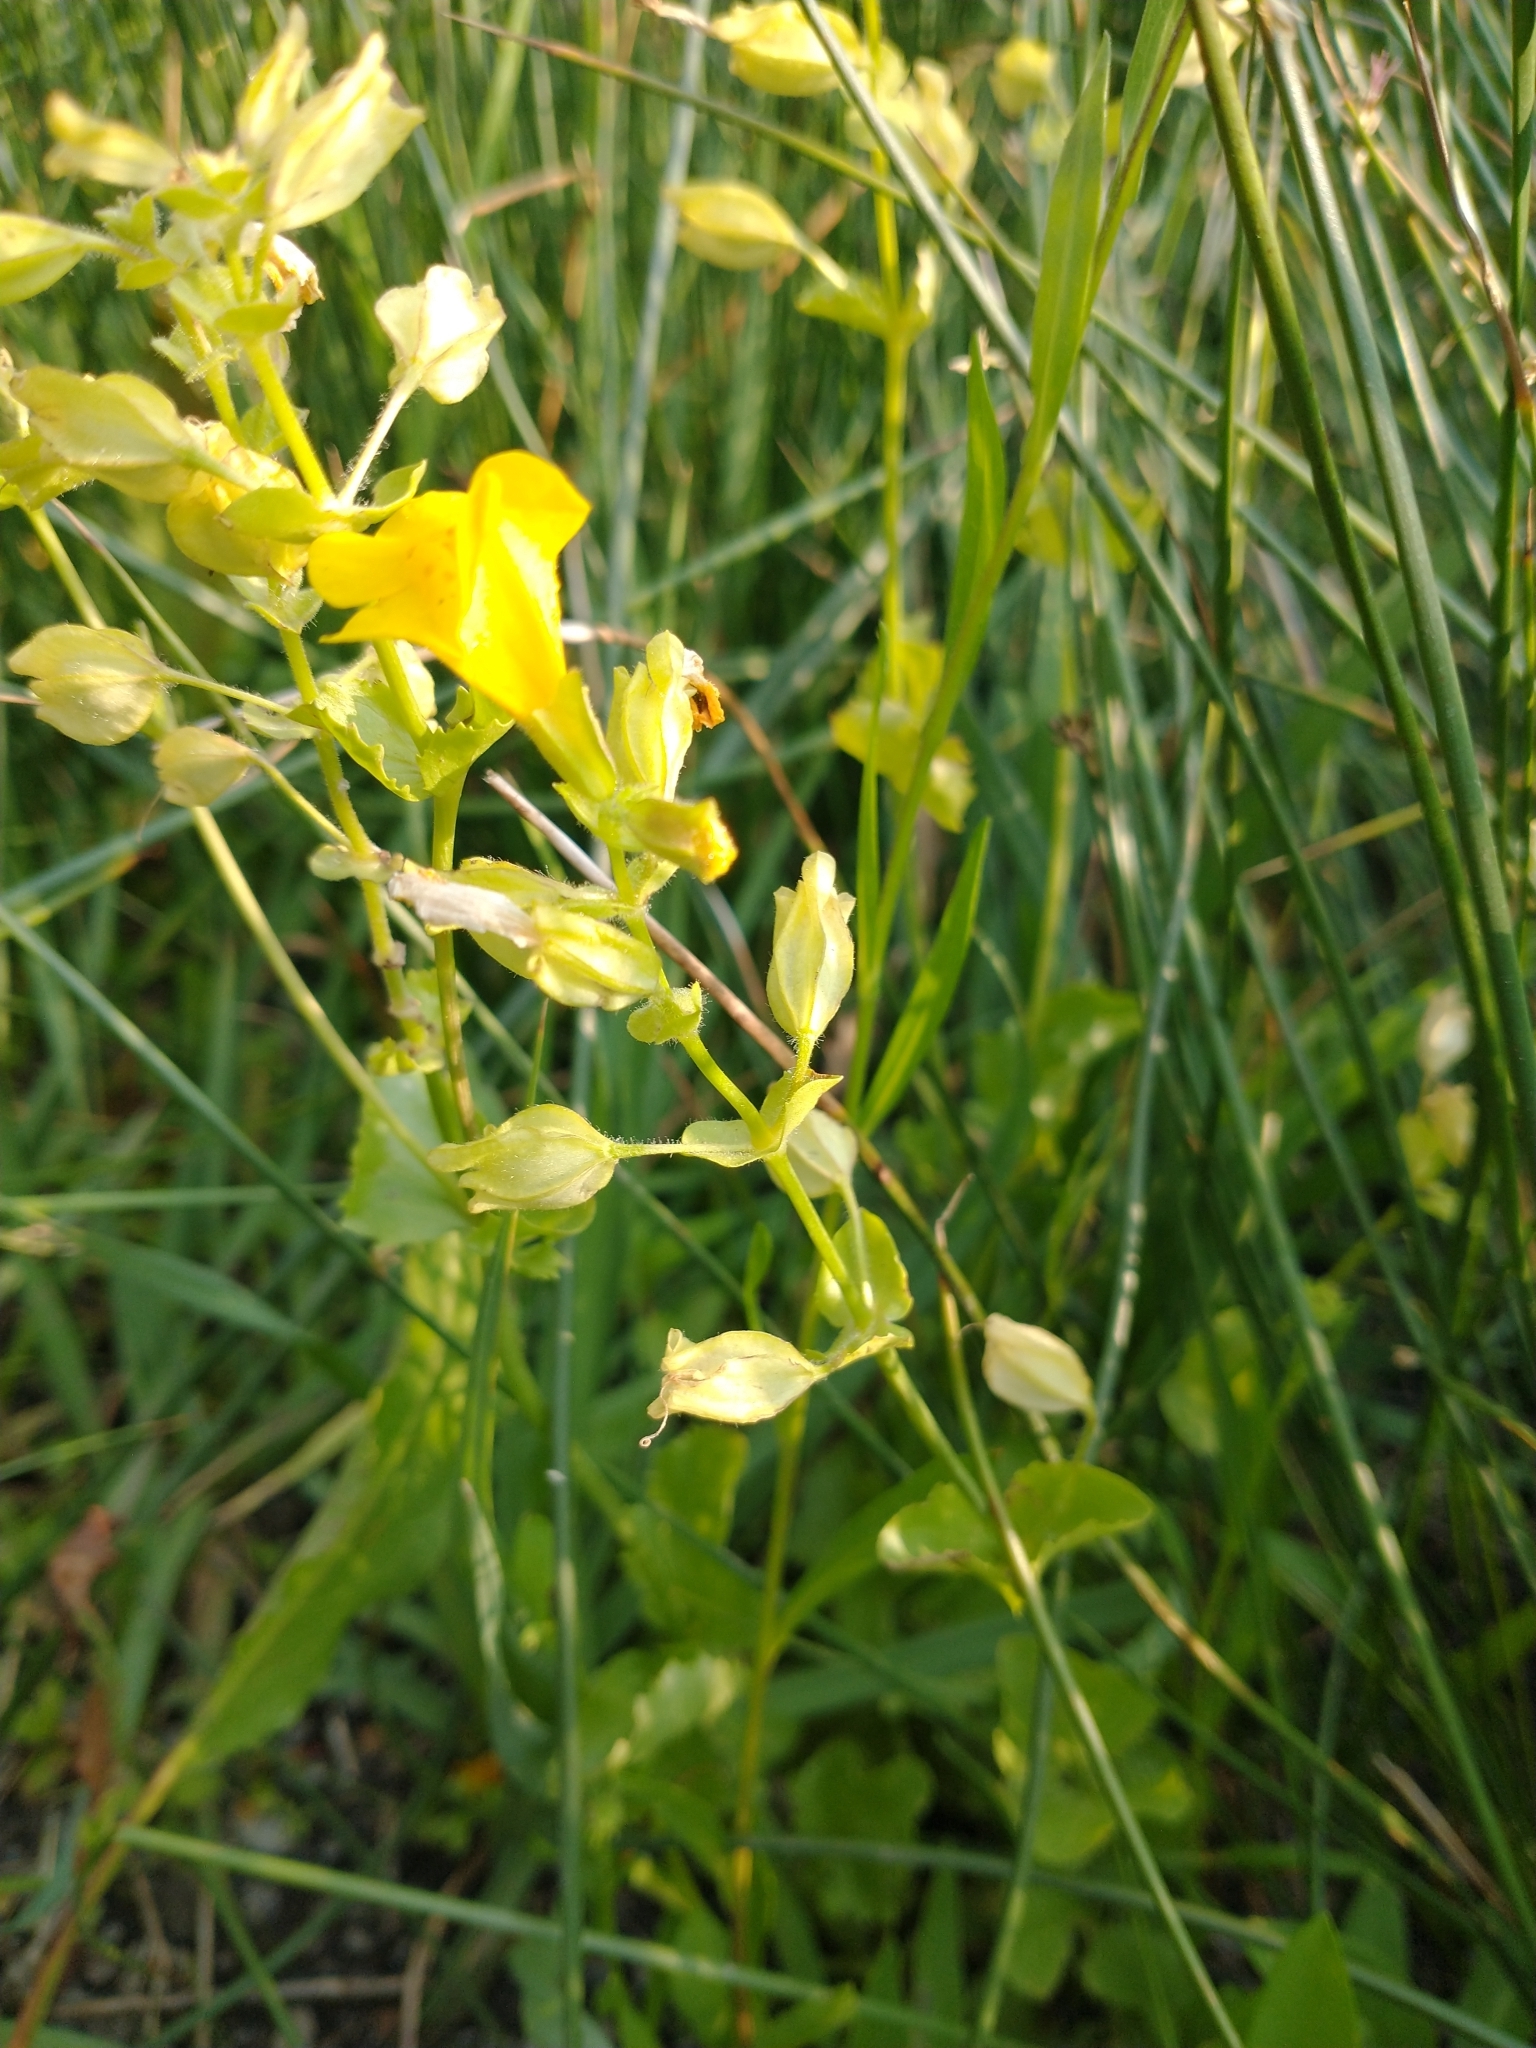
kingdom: Plantae
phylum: Tracheophyta
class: Magnoliopsida
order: Lamiales
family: Phrymaceae
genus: Erythranthe
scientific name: Erythranthe guttata
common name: Monkeyflower
